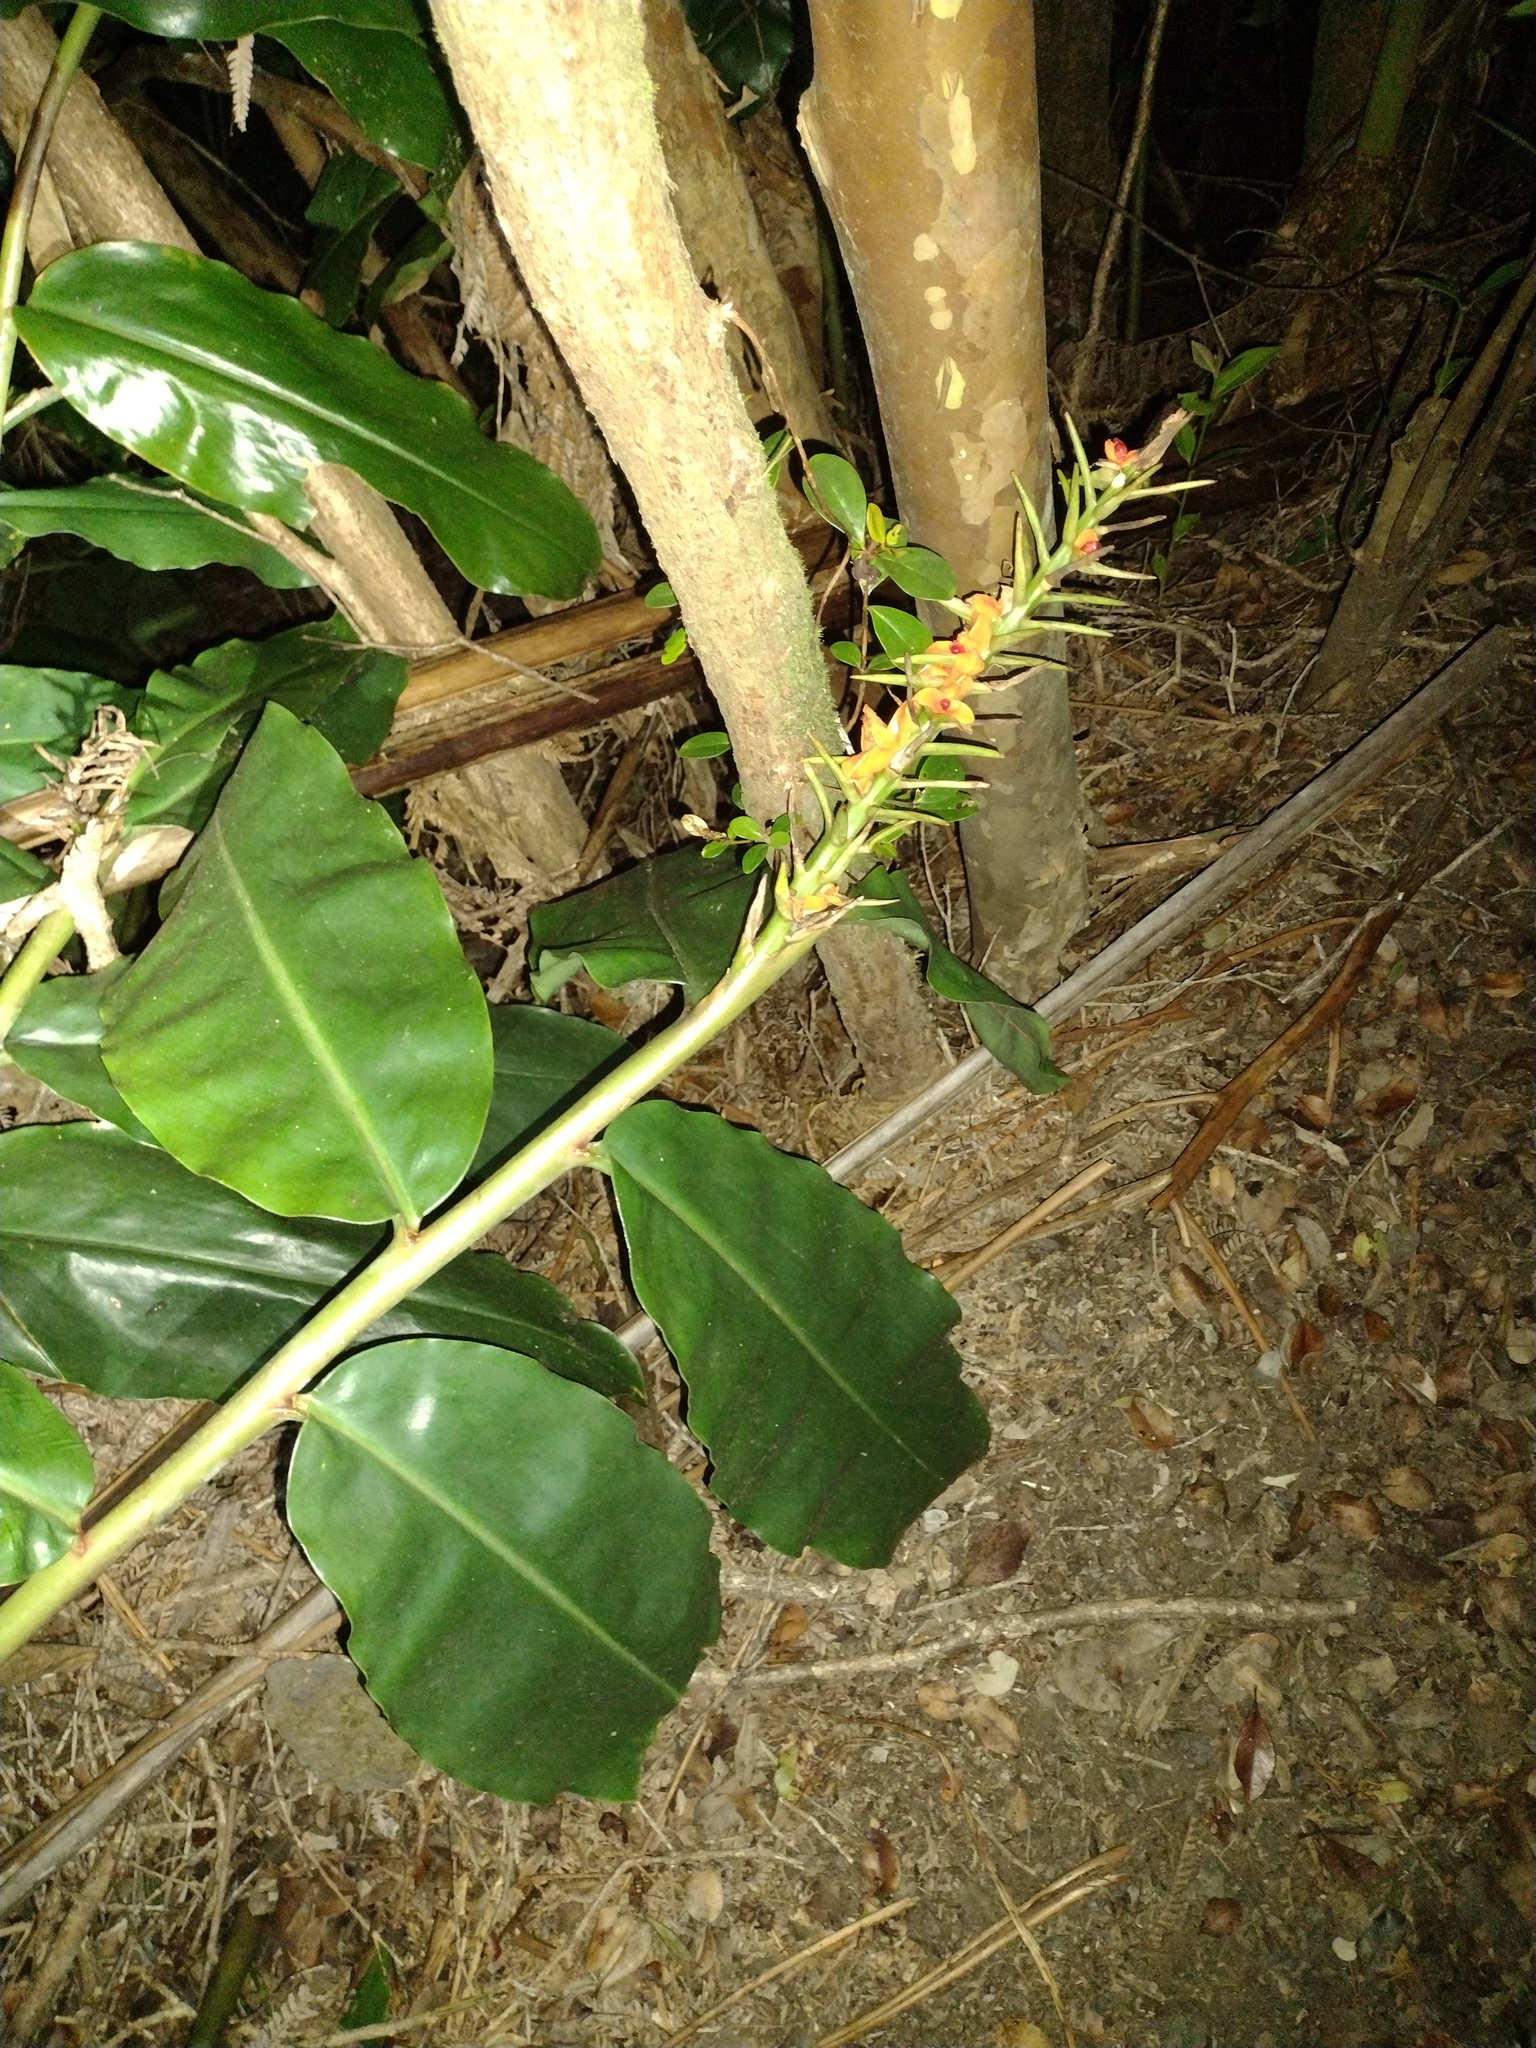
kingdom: Plantae
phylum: Tracheophyta
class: Liliopsida
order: Zingiberales
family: Zingiberaceae
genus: Hedychium
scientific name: Hedychium gardnerianum
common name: Himalayan ginger
